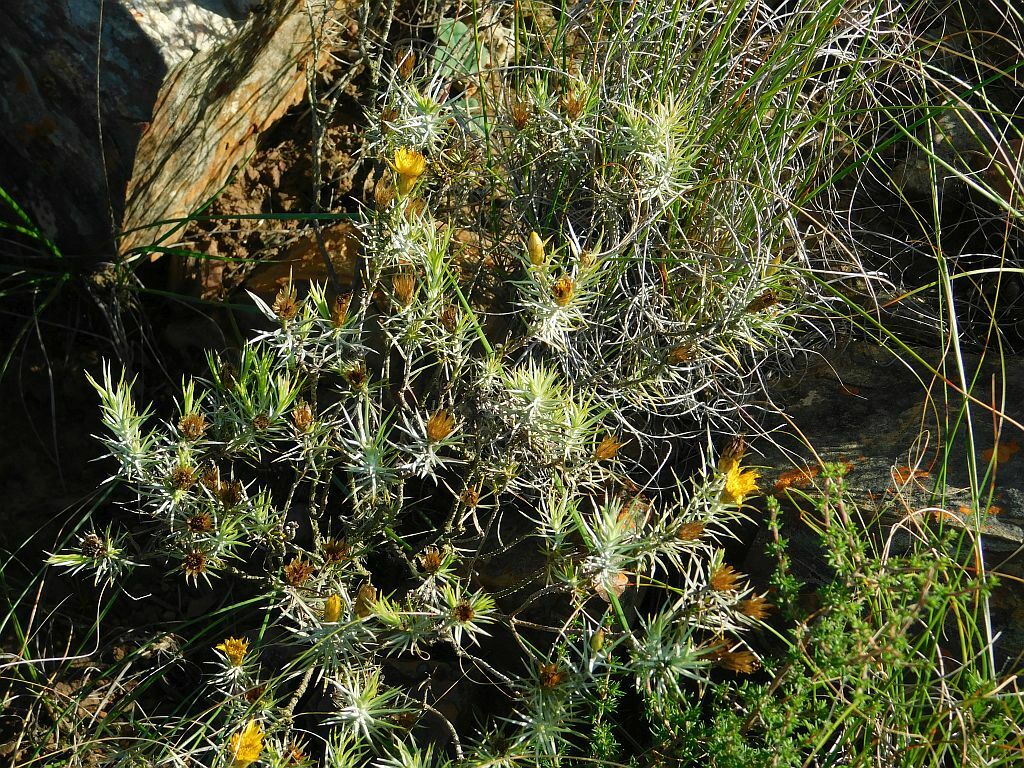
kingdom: Plantae
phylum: Tracheophyta
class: Magnoliopsida
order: Asterales
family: Asteraceae
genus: Oedera
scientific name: Oedera pungens
